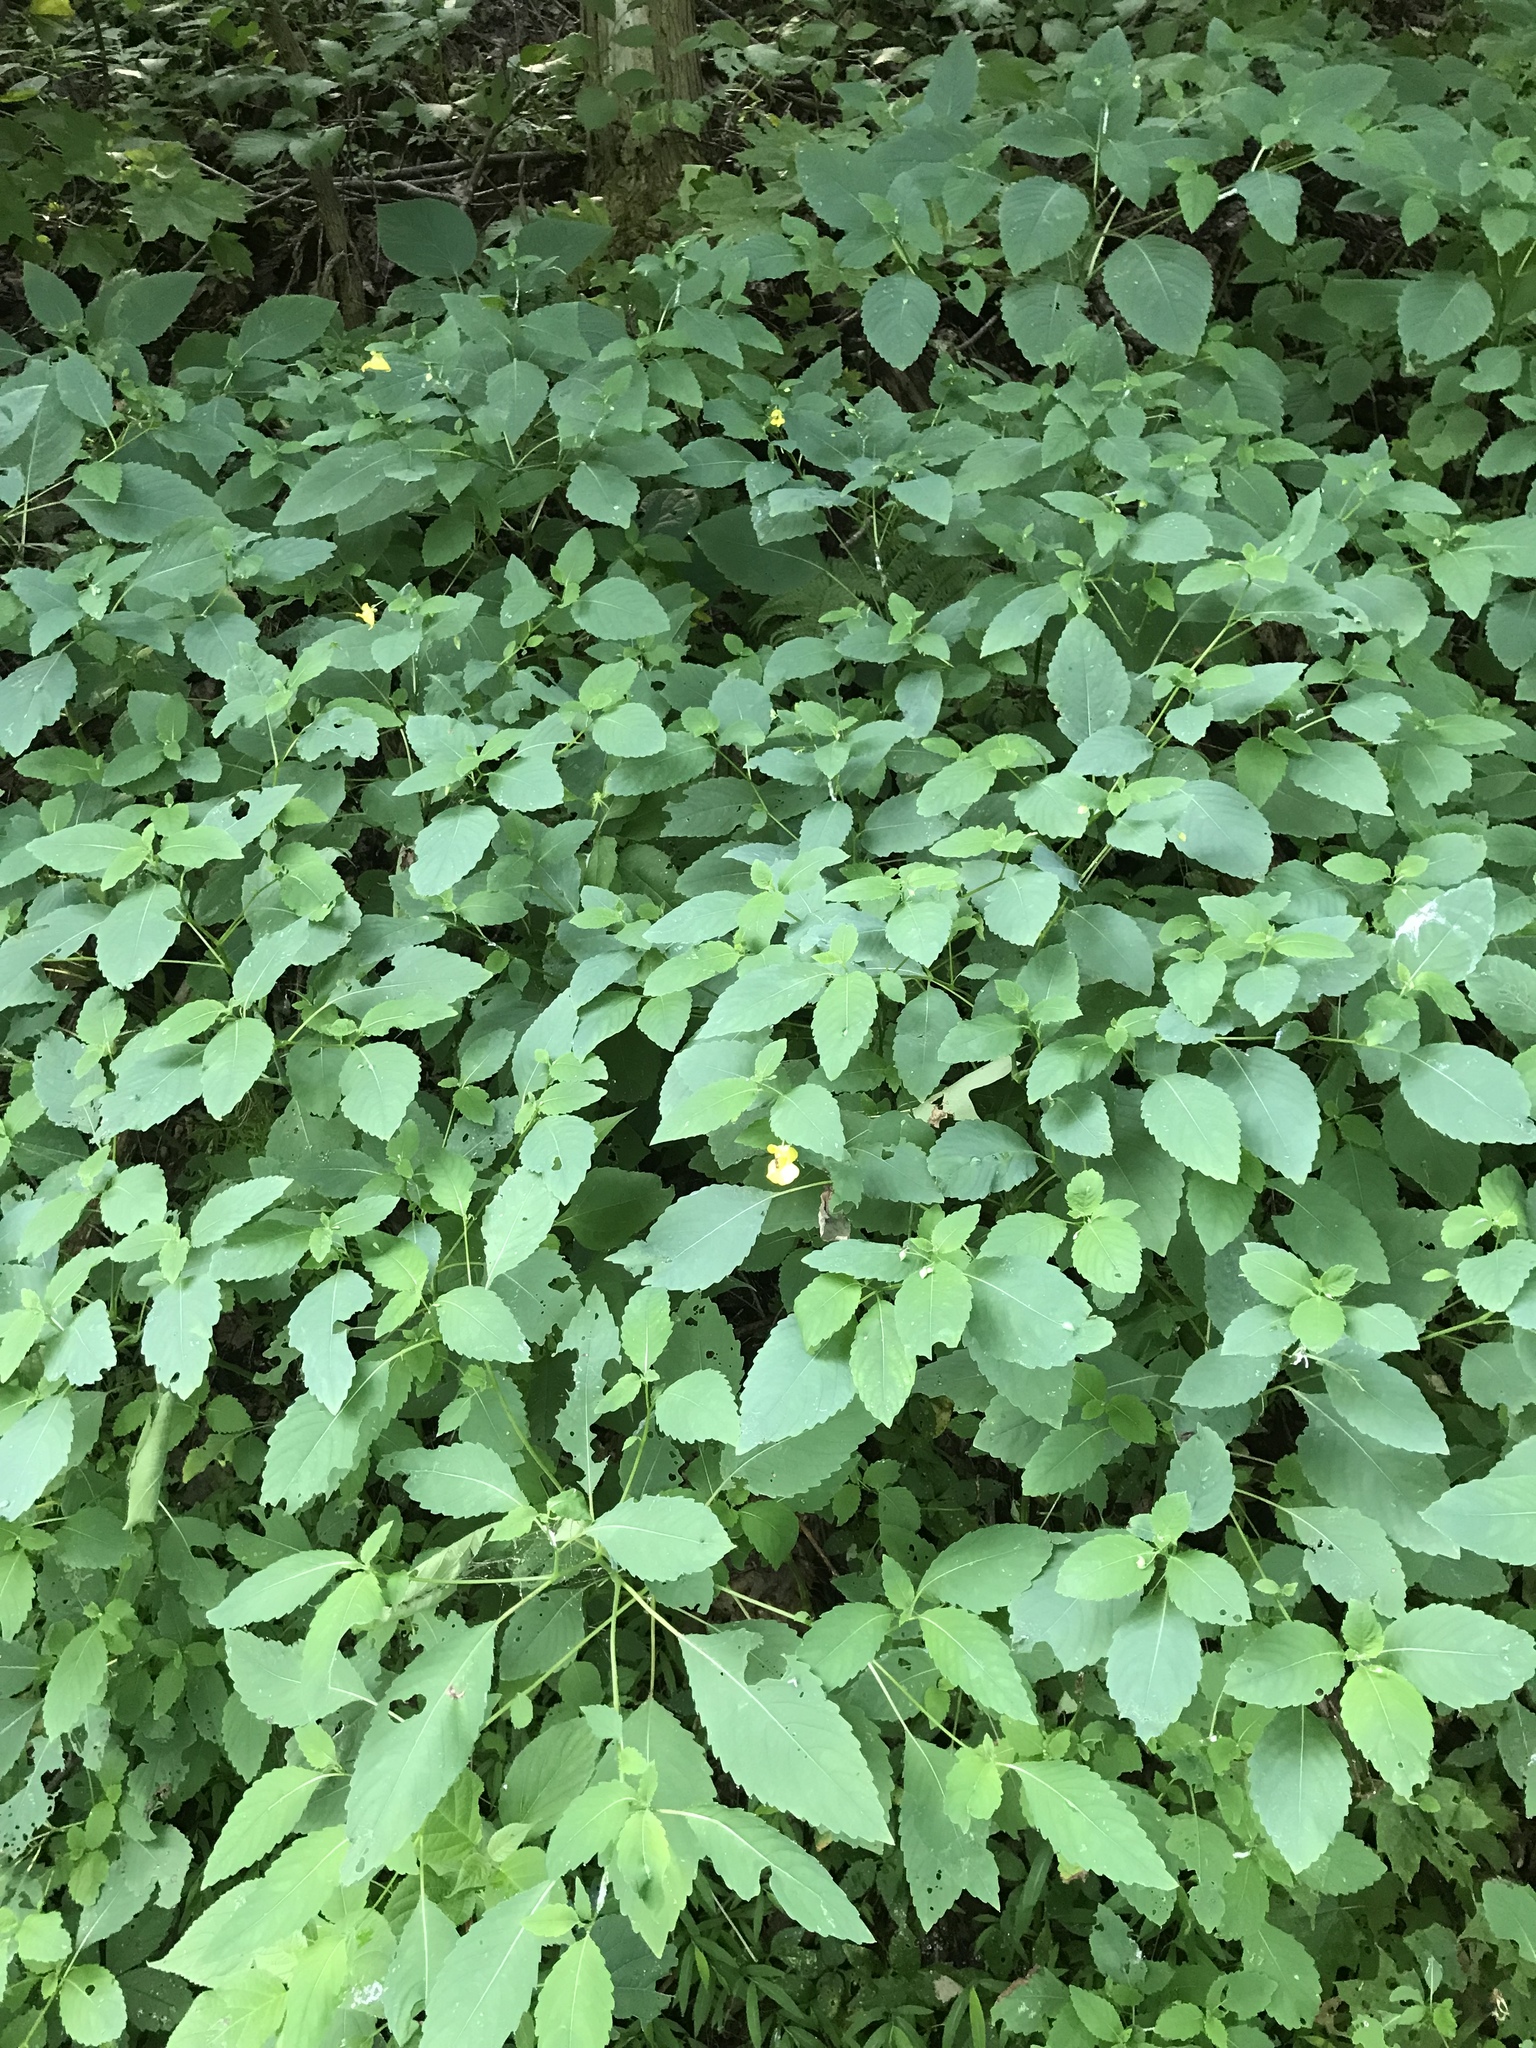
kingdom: Plantae
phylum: Tracheophyta
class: Magnoliopsida
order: Ericales
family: Balsaminaceae
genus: Impatiens
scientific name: Impatiens pallida
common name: Pale snapweed
